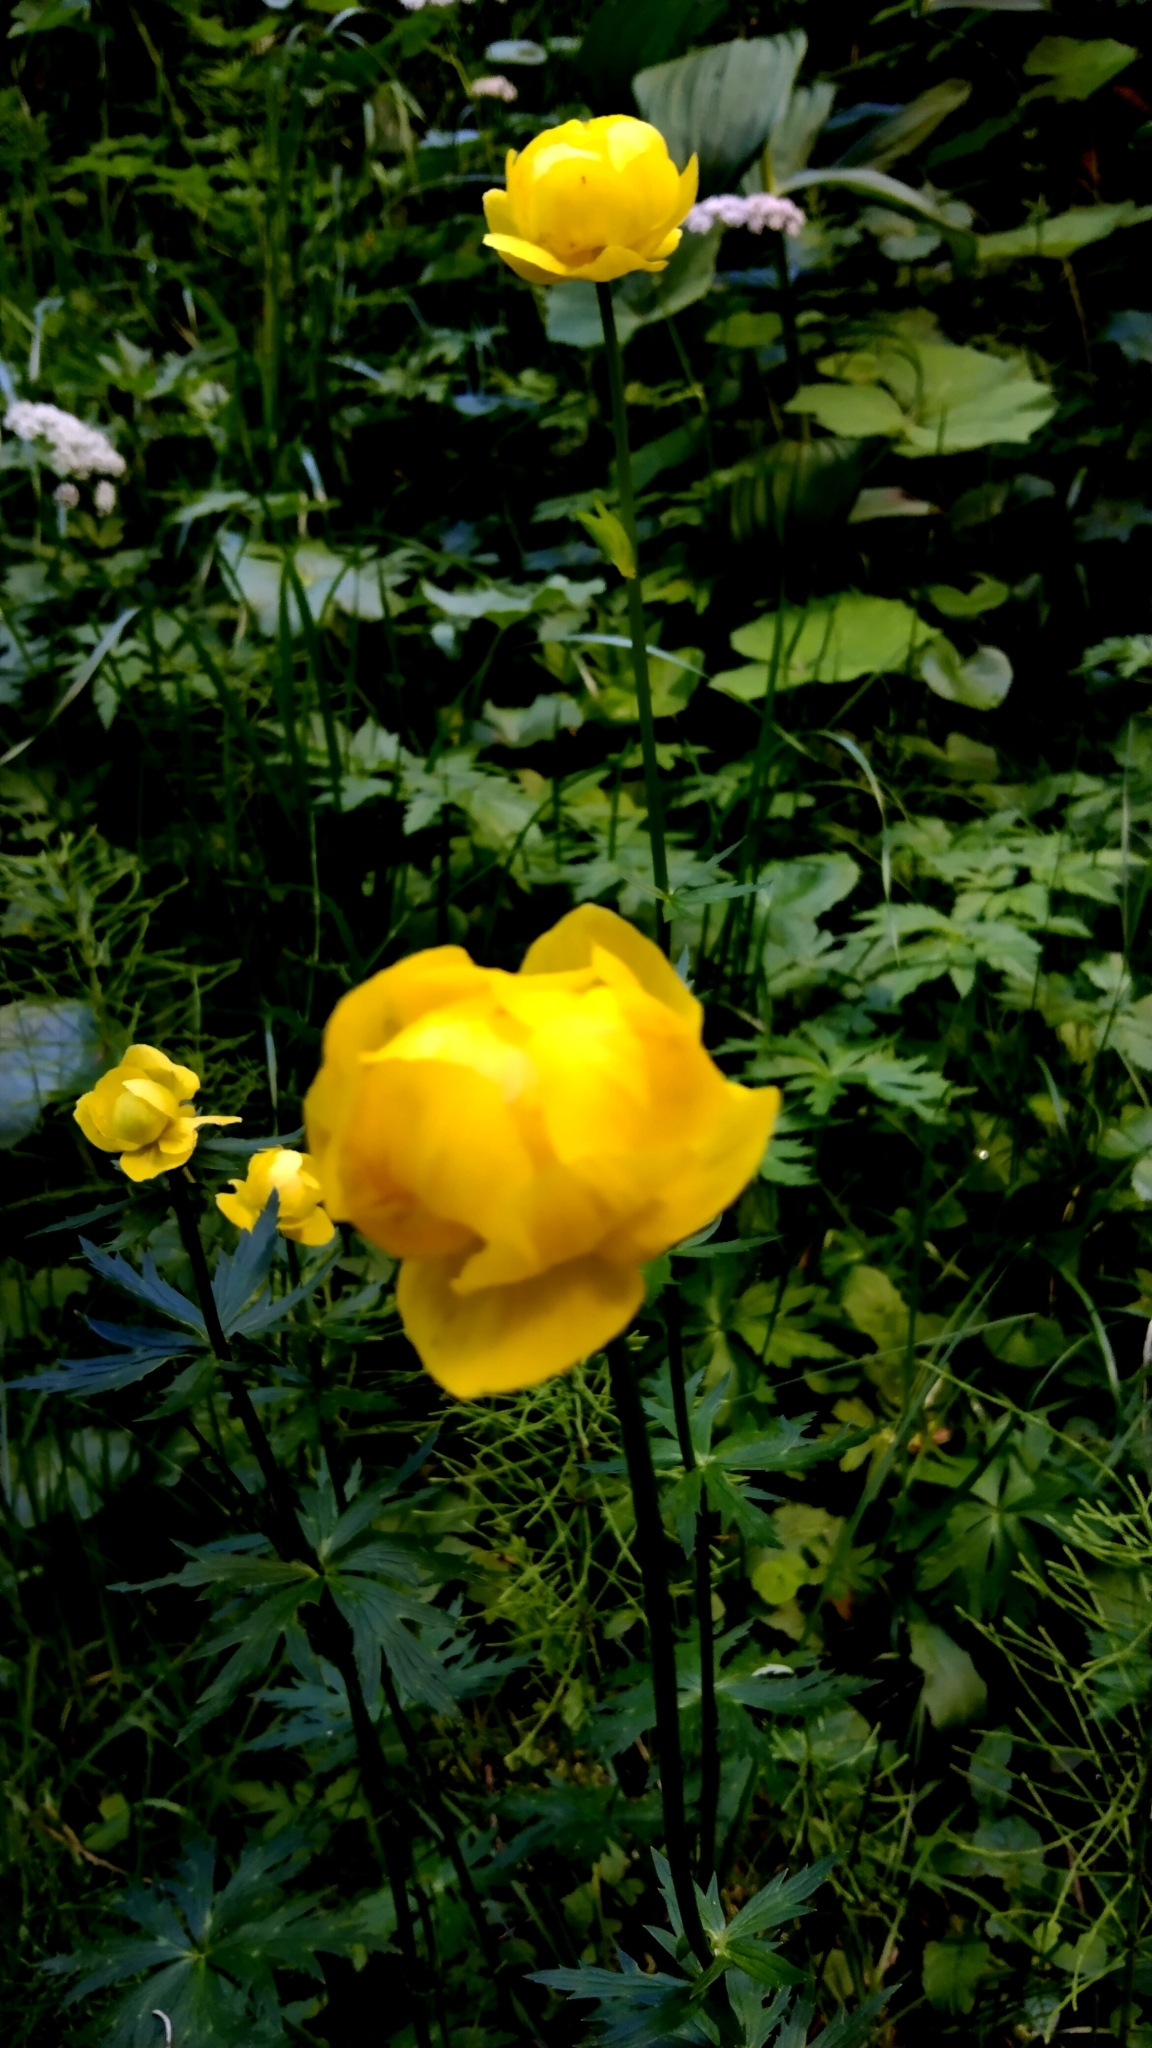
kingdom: Plantae
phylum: Tracheophyta
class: Magnoliopsida
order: Ranunculales
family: Ranunculaceae
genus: Trollius
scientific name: Trollius europaeus
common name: European globeflower
